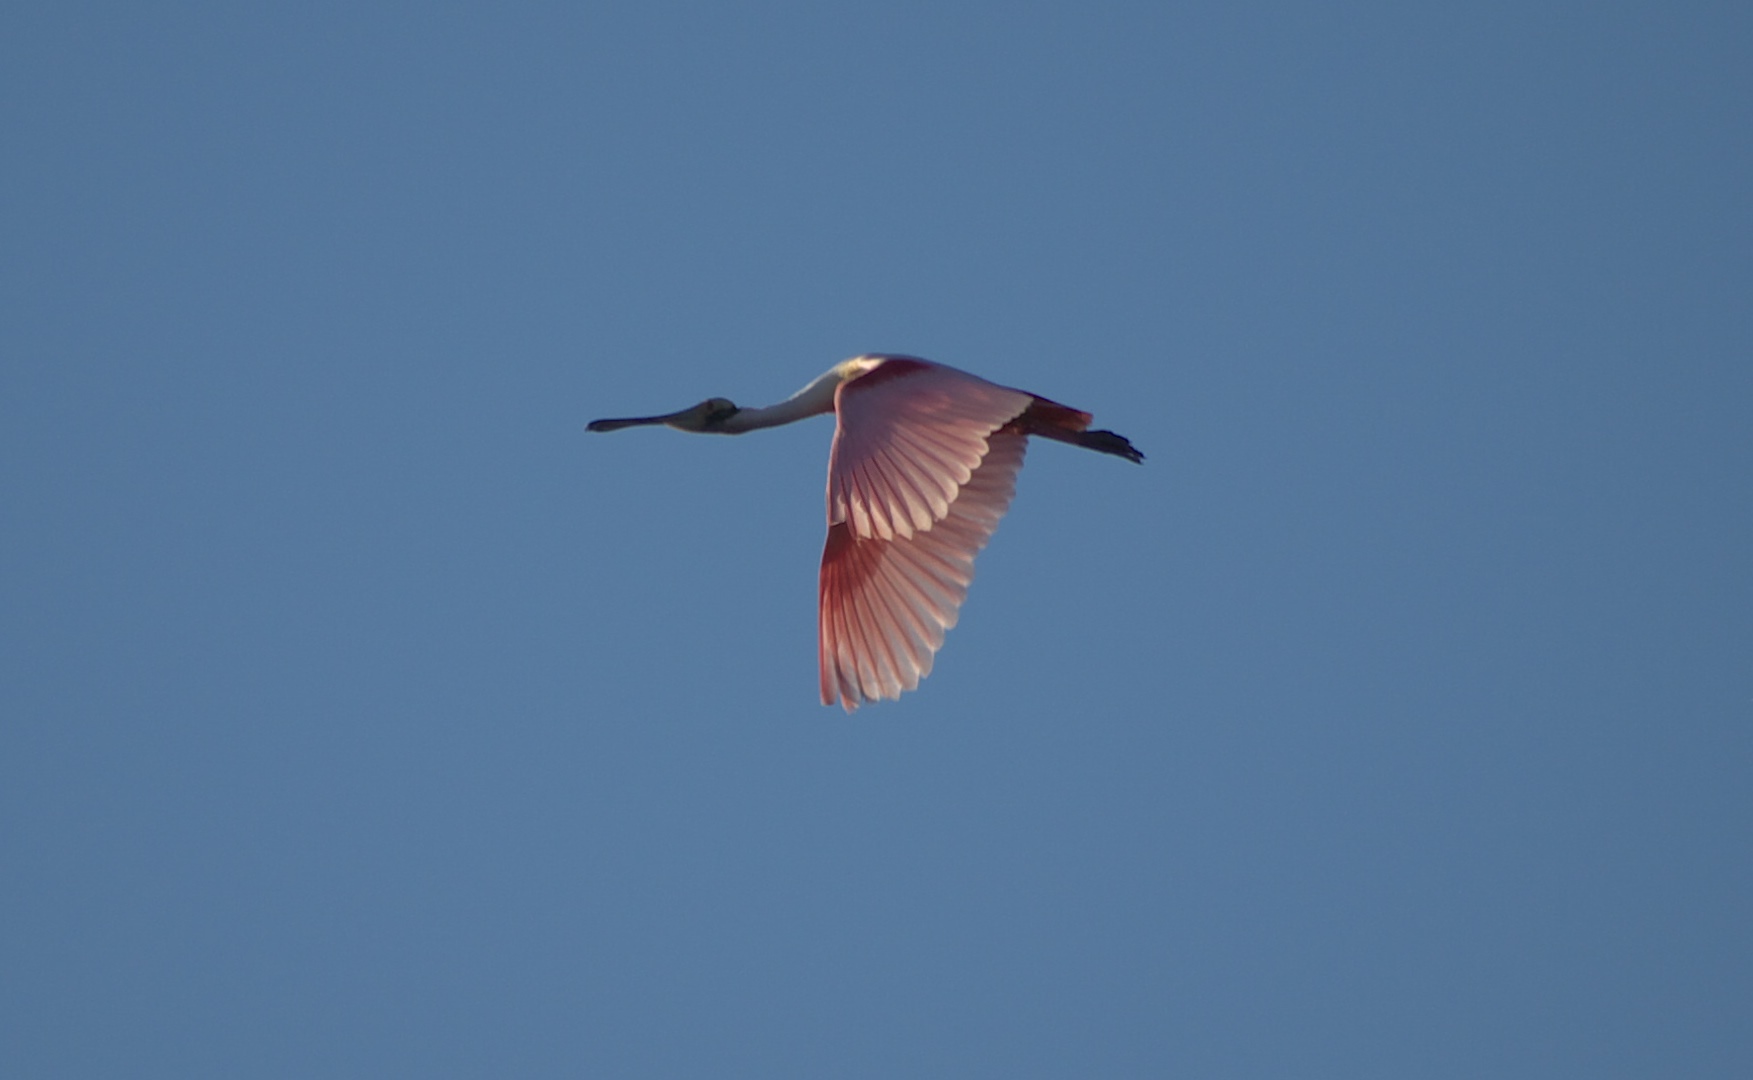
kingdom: Animalia
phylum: Chordata
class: Aves
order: Pelecaniformes
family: Threskiornithidae
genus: Platalea
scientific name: Platalea ajaja
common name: Roseate spoonbill
